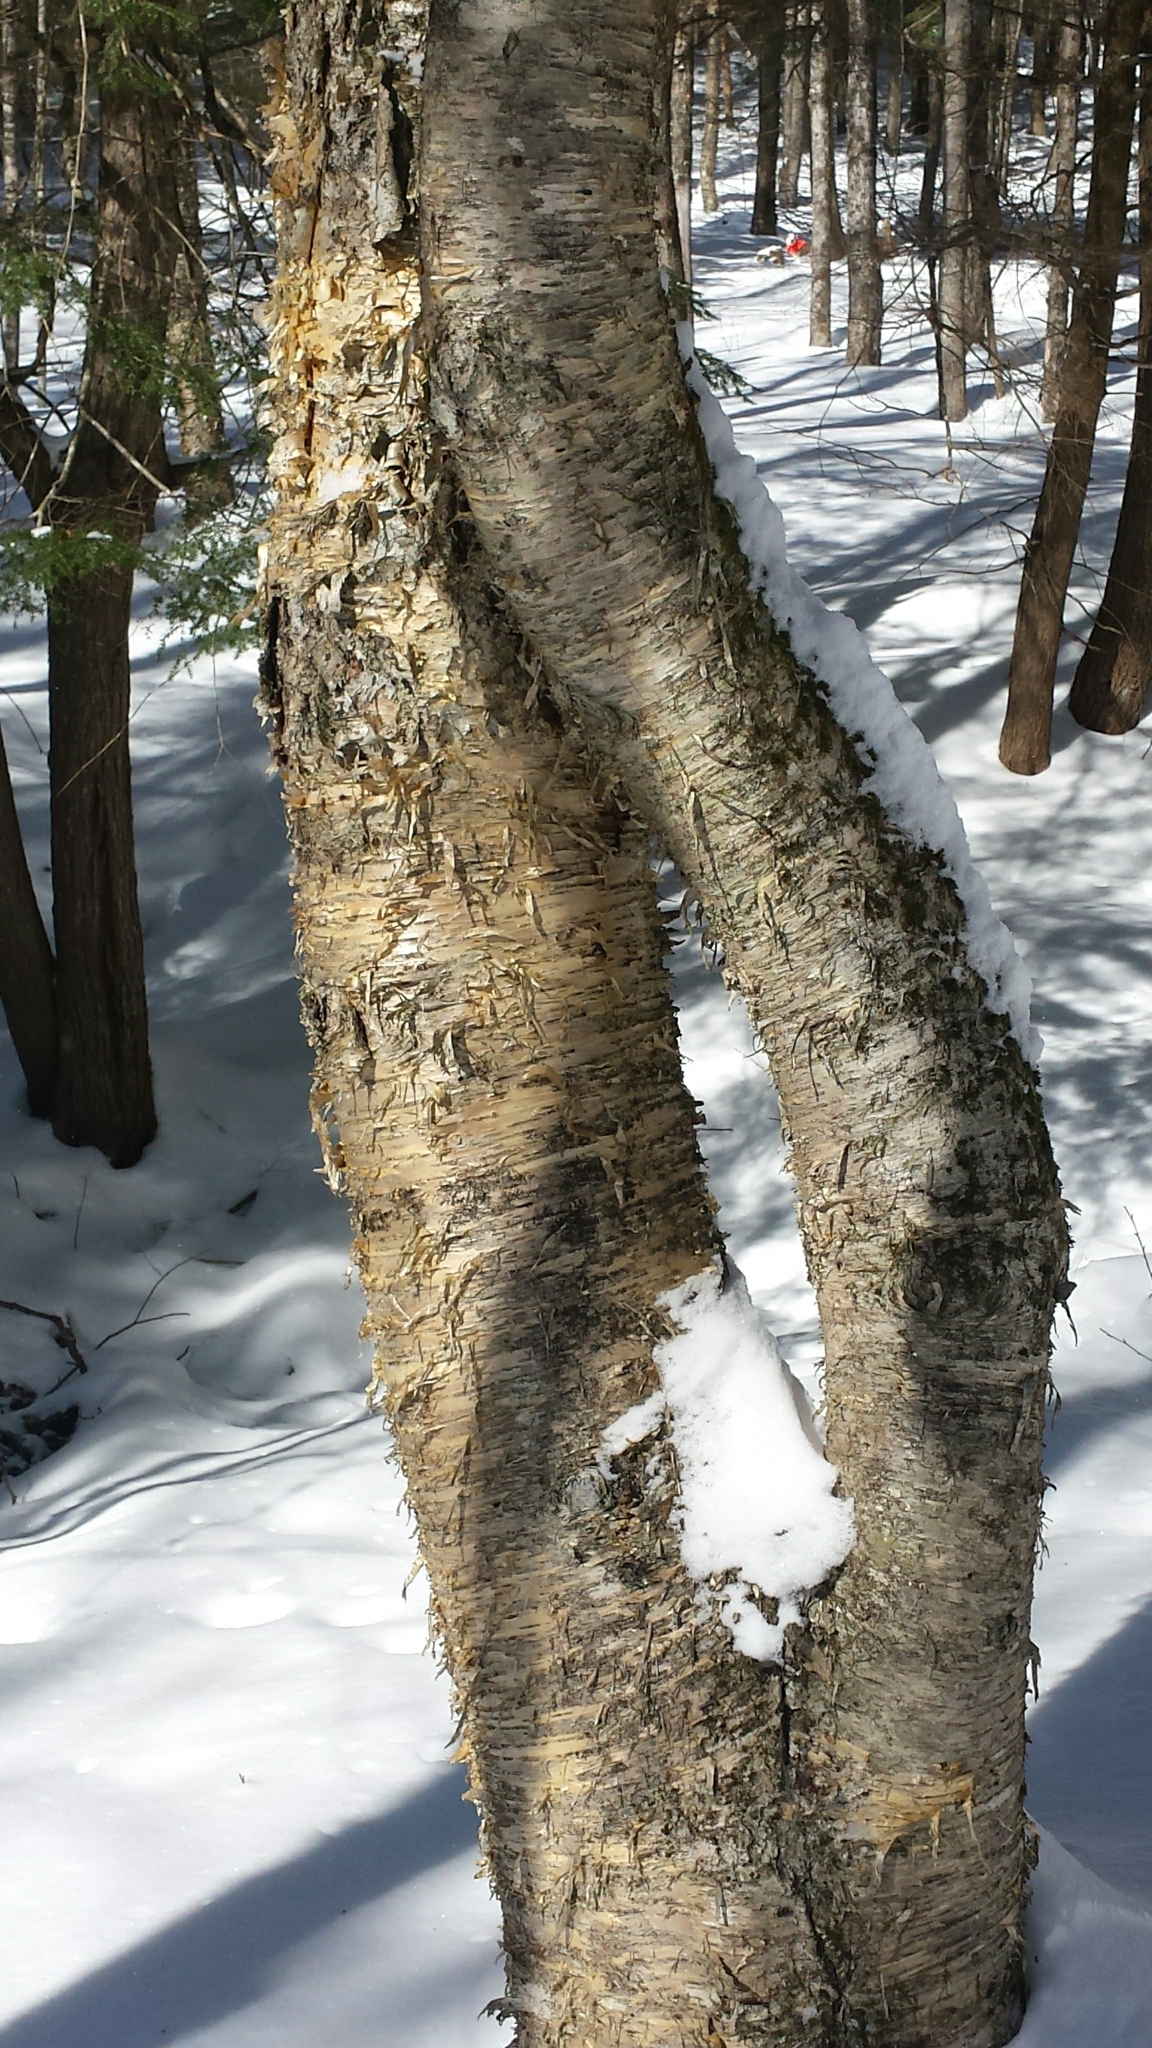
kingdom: Plantae
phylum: Tracheophyta
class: Magnoliopsida
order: Fagales
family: Betulaceae
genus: Betula
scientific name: Betula alleghaniensis
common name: Yellow birch
